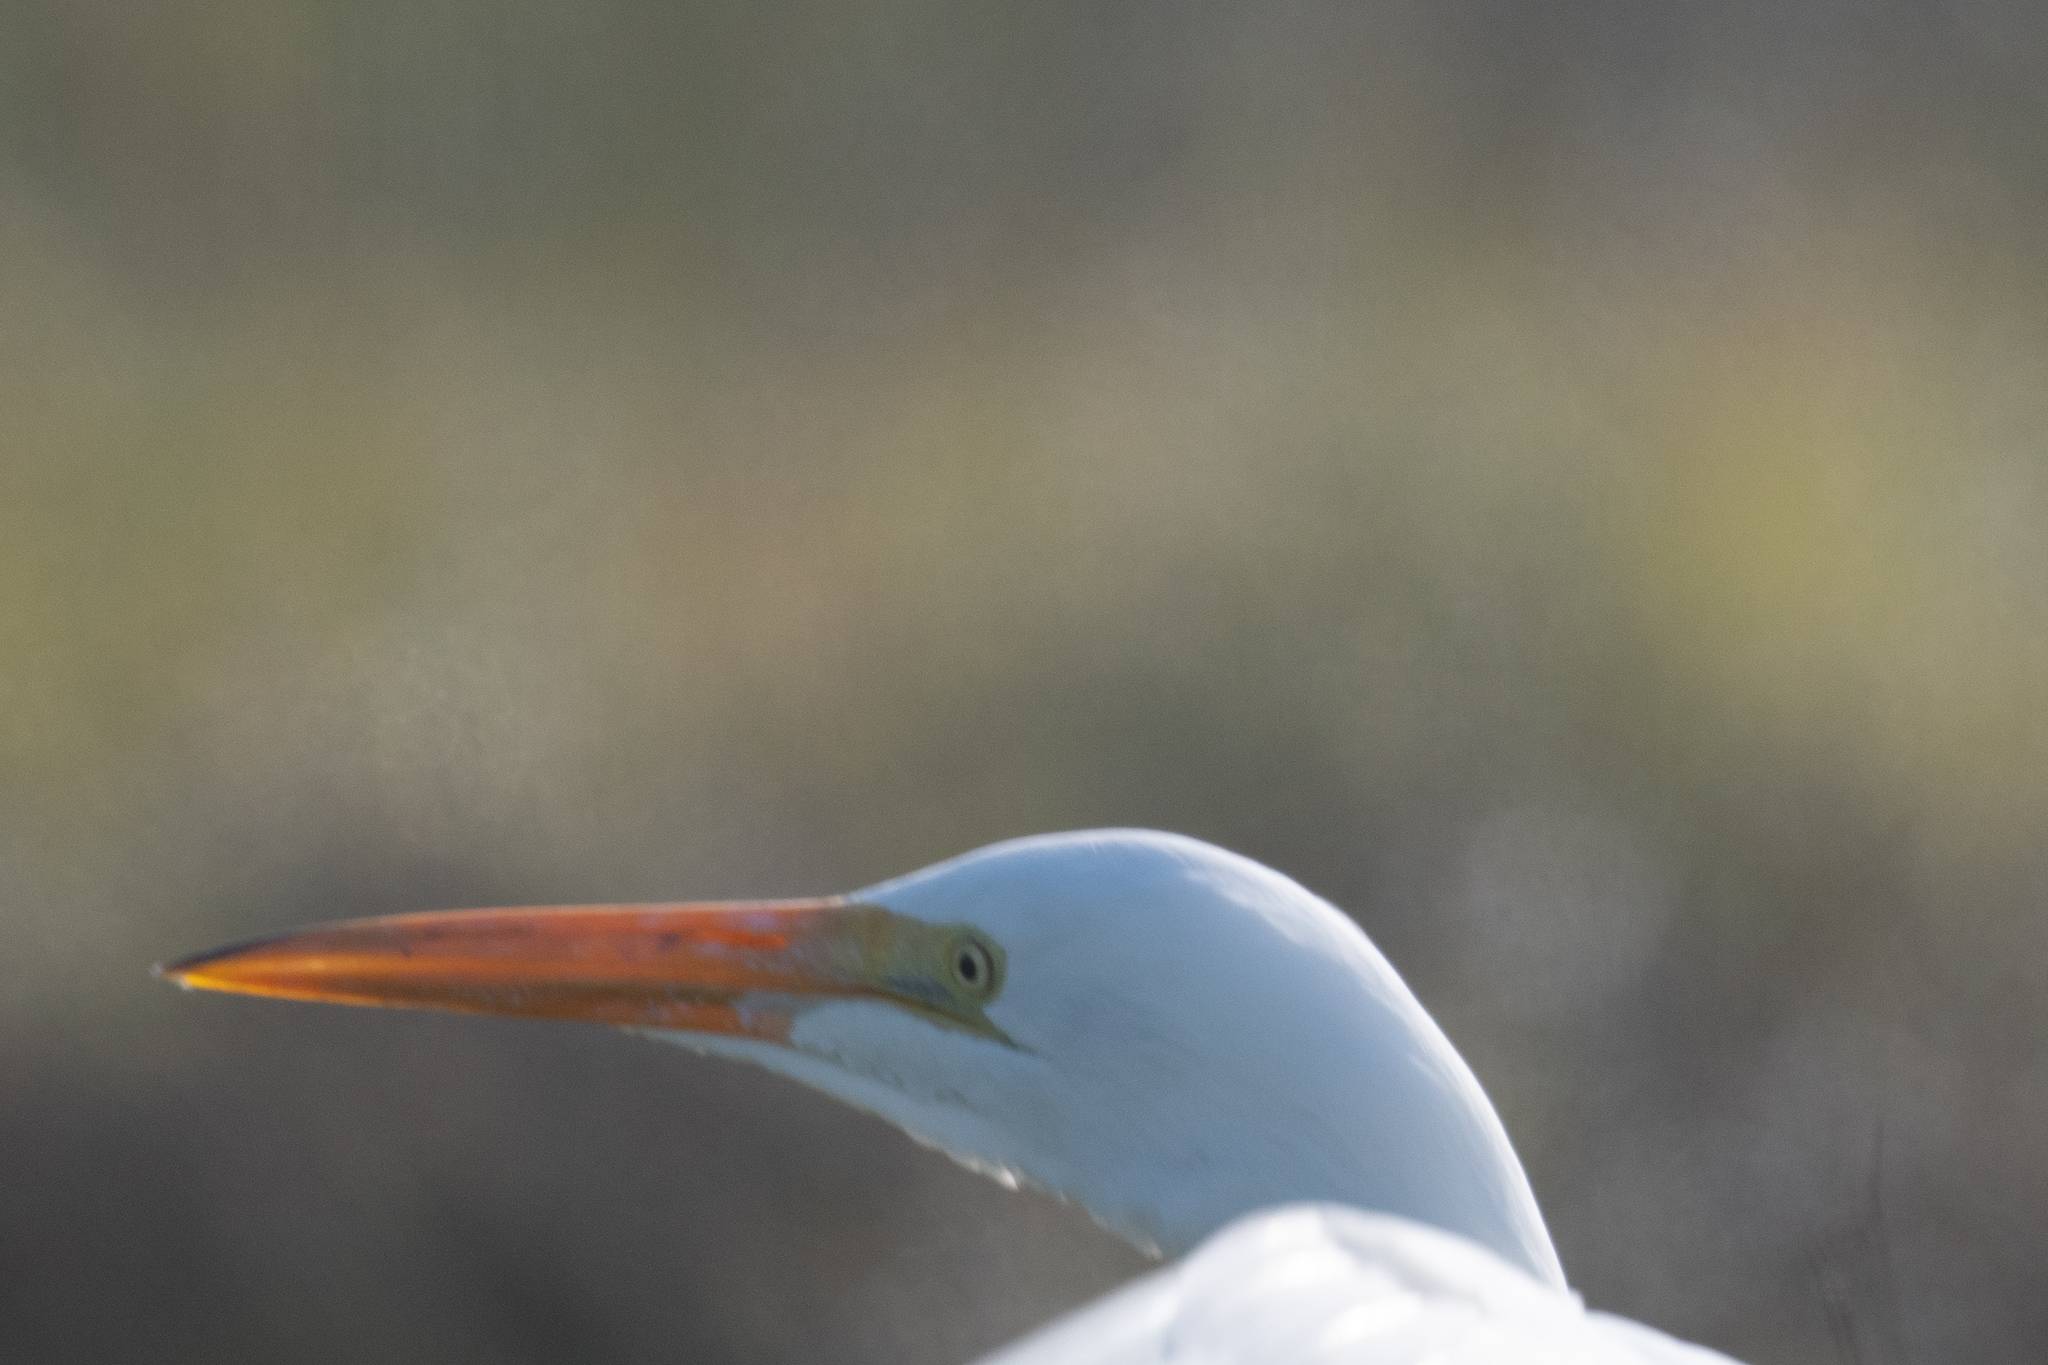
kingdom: Animalia
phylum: Chordata
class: Aves
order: Pelecaniformes
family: Ardeidae
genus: Ardea
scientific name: Ardea alba
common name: Great egret
